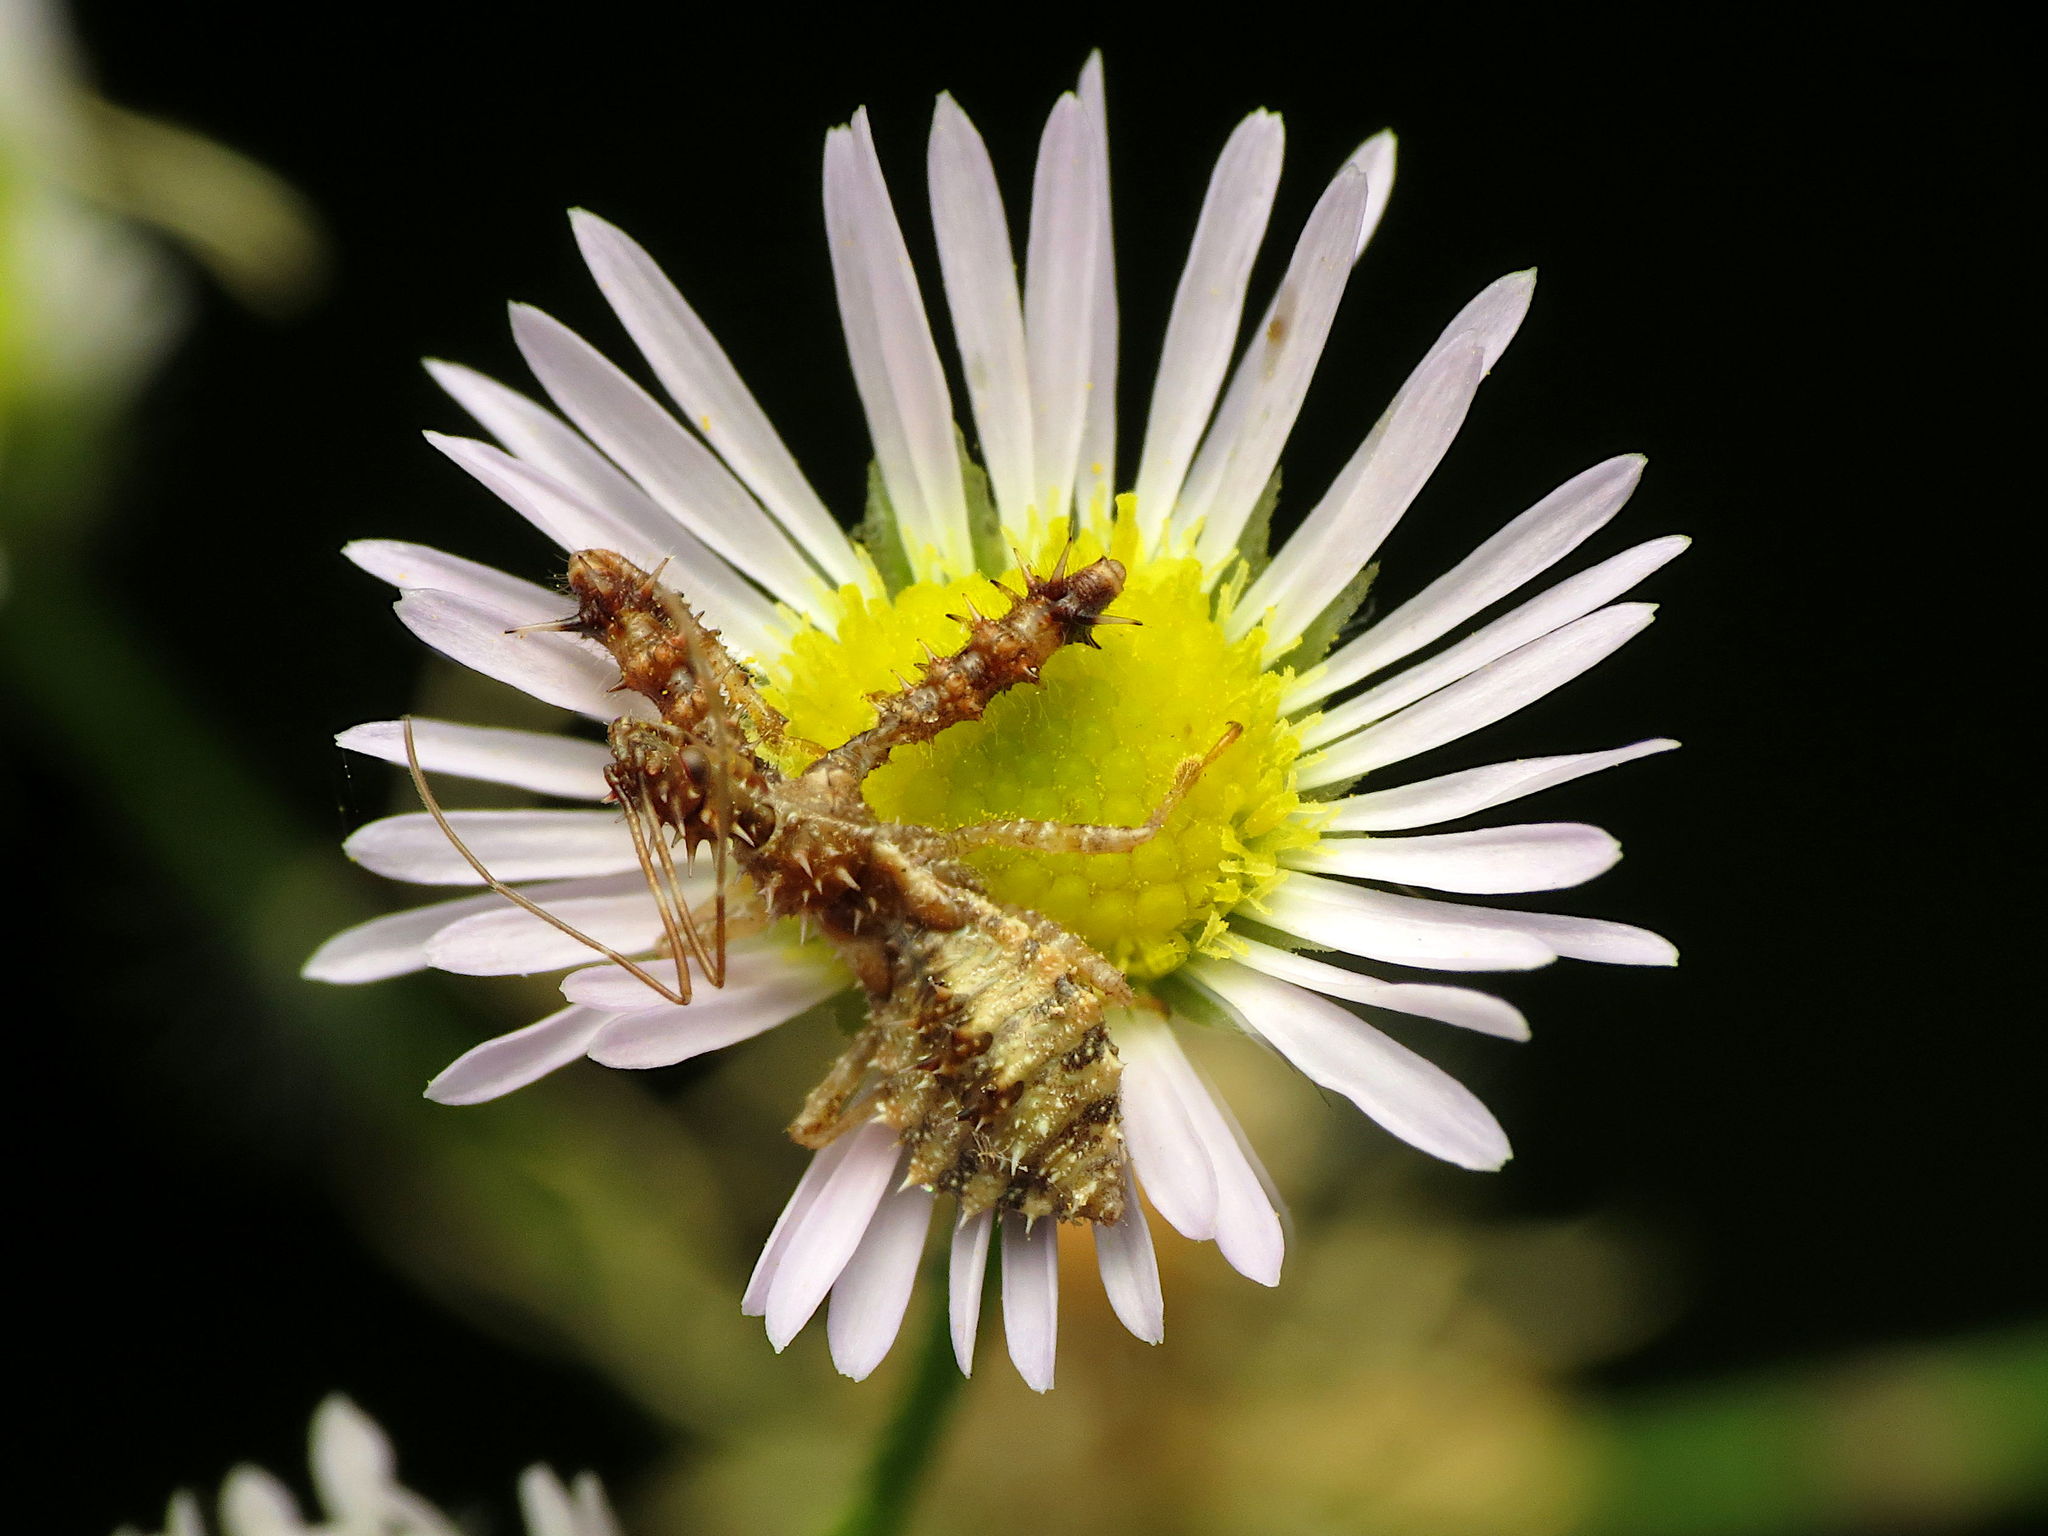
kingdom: Animalia
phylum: Arthropoda
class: Insecta
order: Hemiptera
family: Reduviidae
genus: Sinea
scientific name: Sinea
